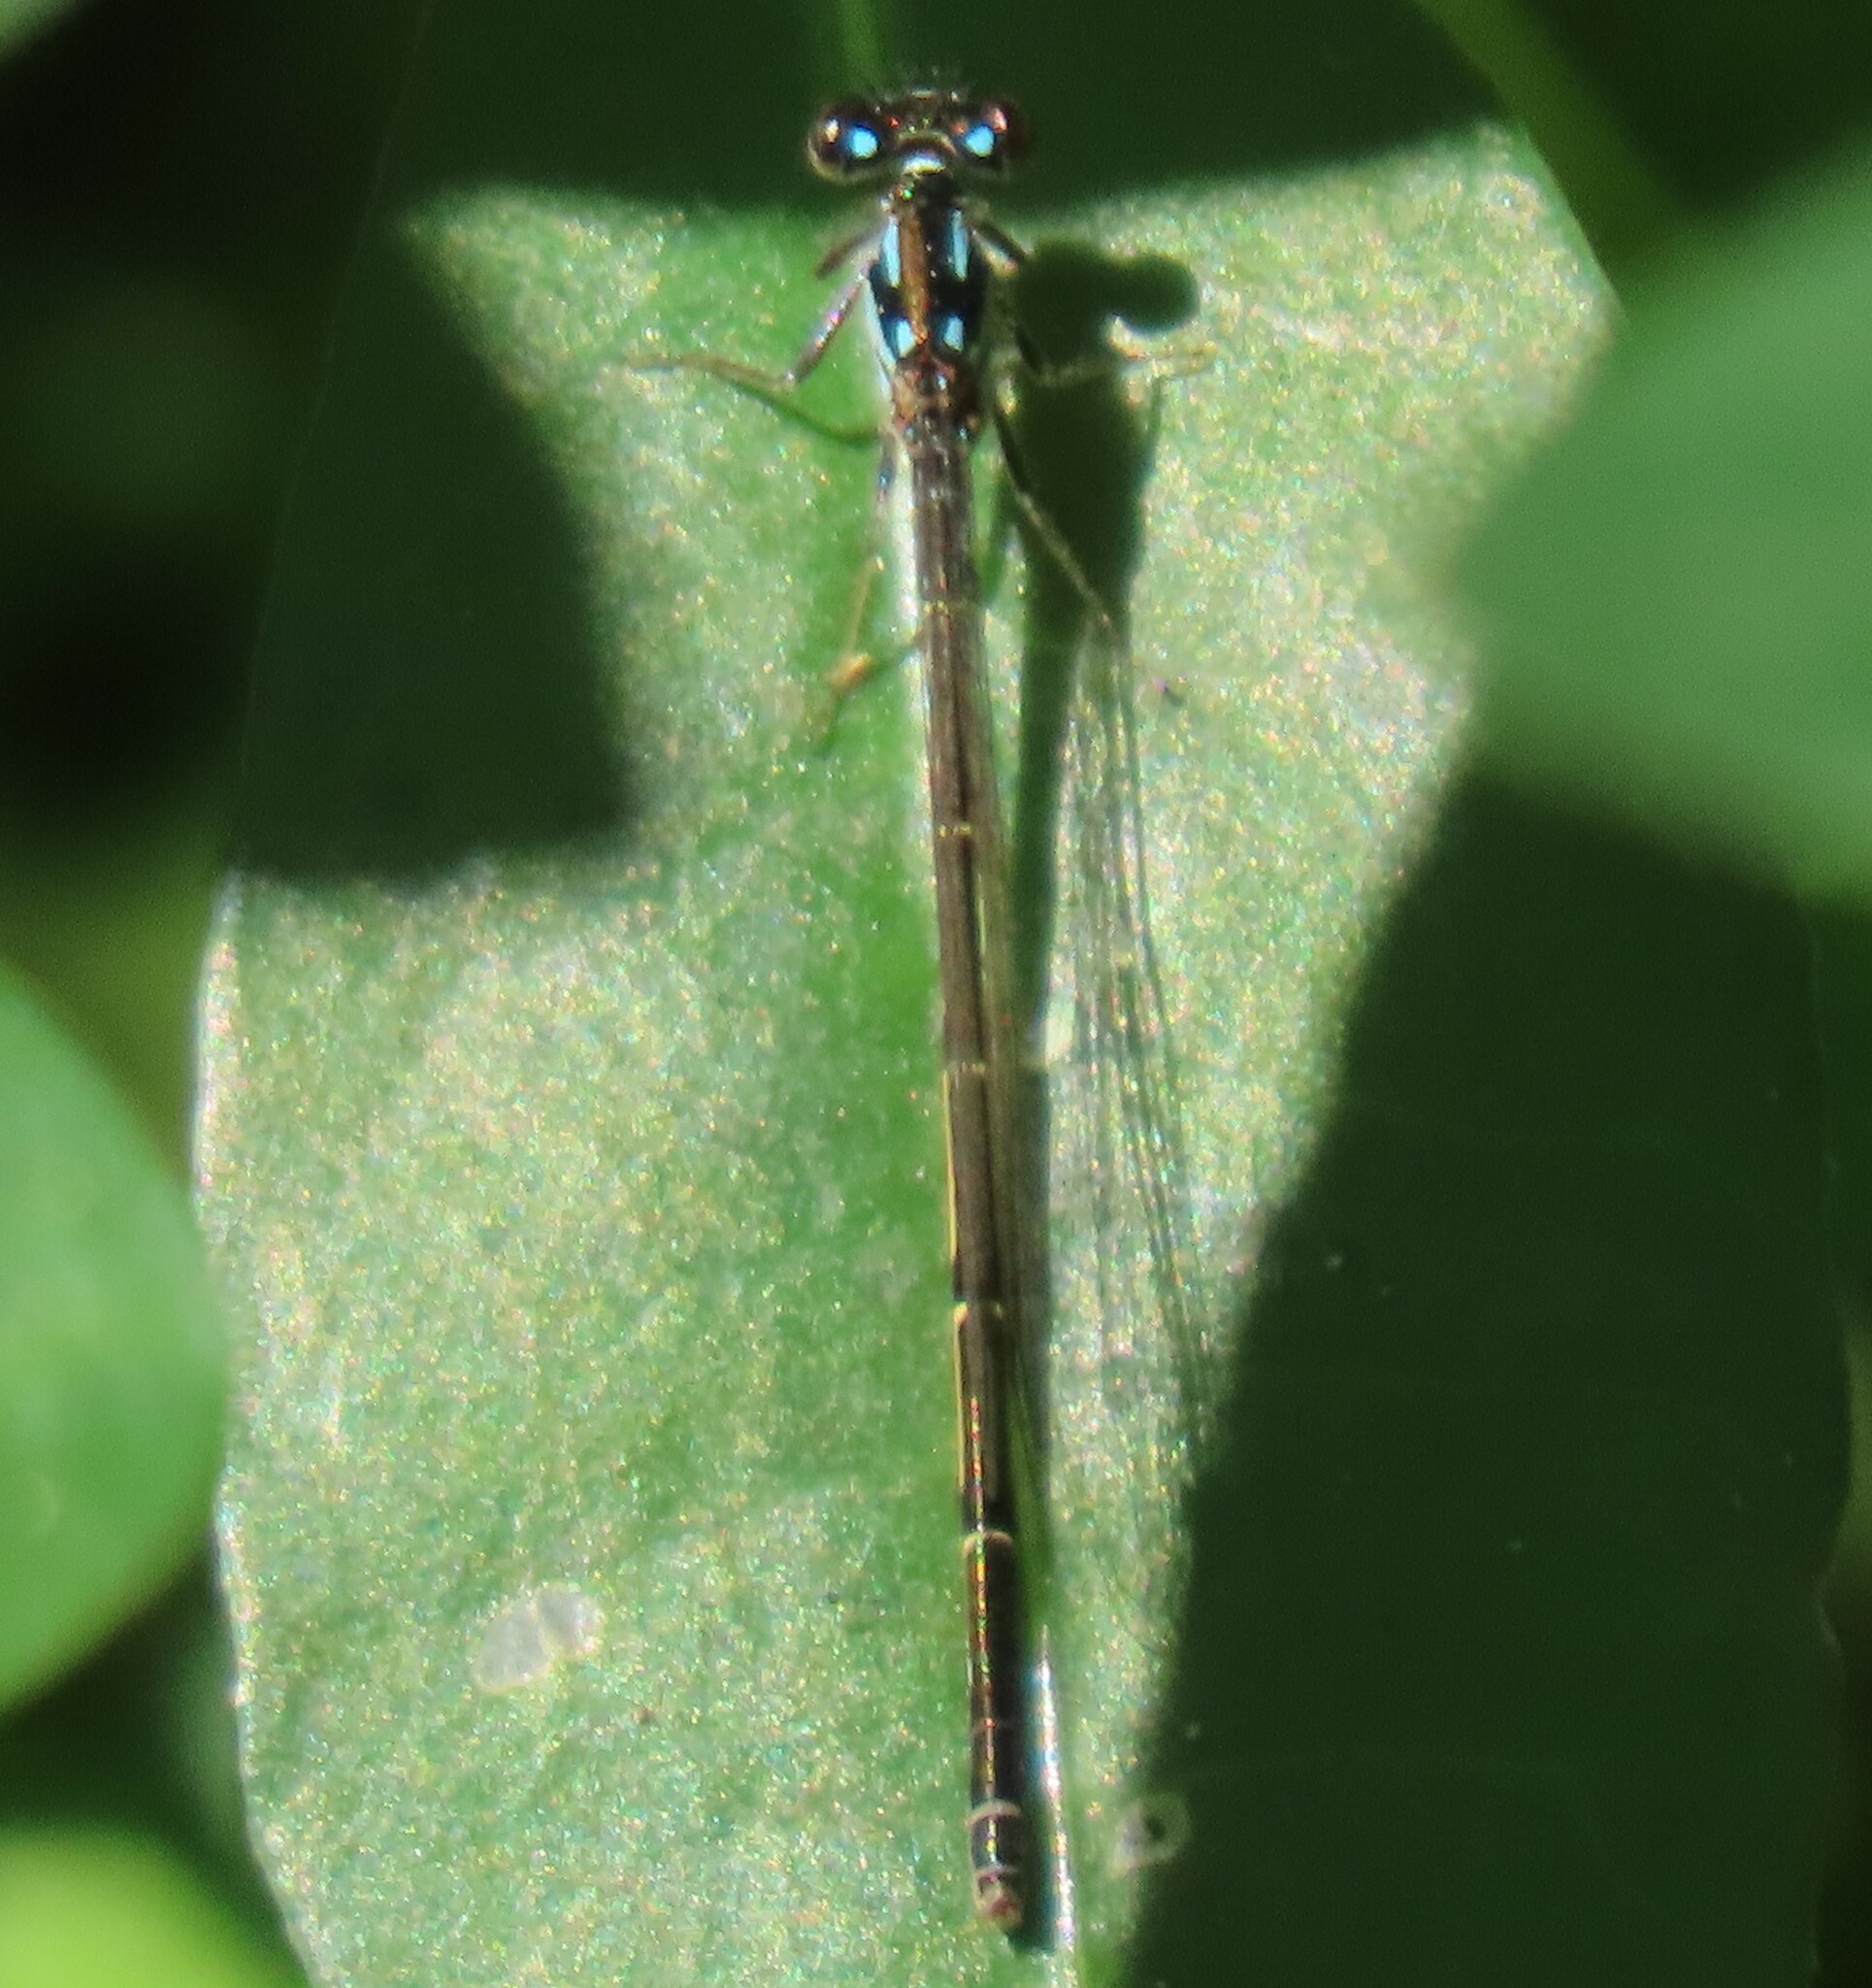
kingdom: Animalia
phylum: Arthropoda
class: Insecta
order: Odonata
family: Coenagrionidae
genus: Ischnura
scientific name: Ischnura posita
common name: Fragile forktail
